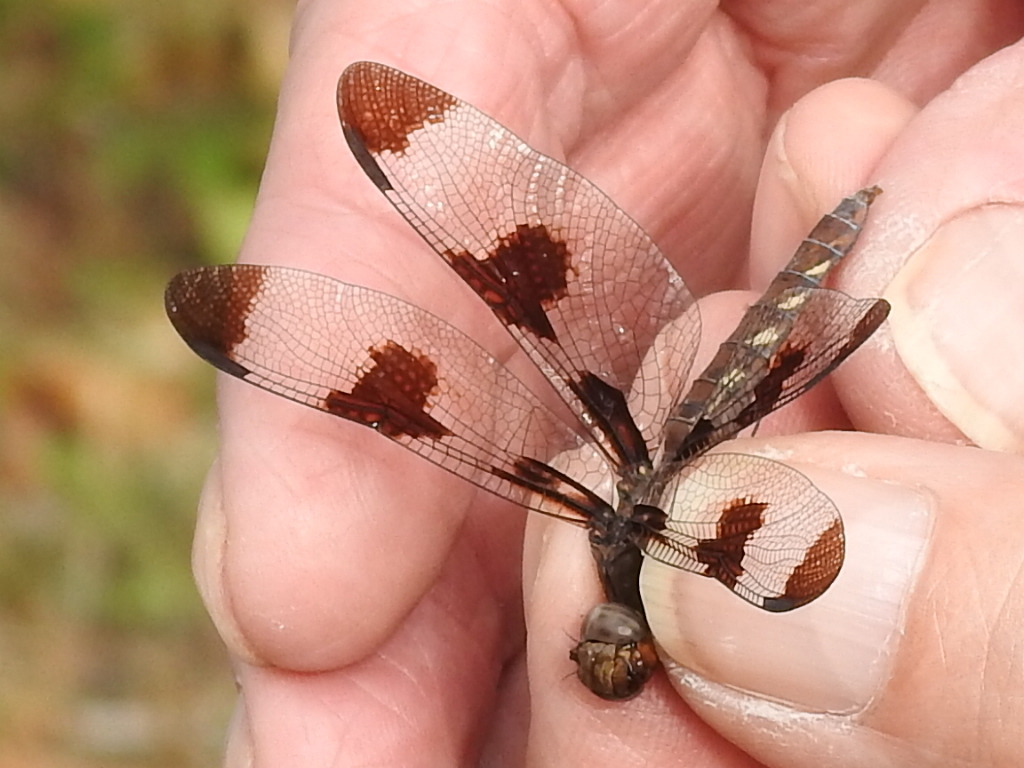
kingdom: Animalia
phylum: Arthropoda
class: Insecta
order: Odonata
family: Libellulidae
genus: Plathemis
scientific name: Plathemis lydia
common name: Common whitetail
